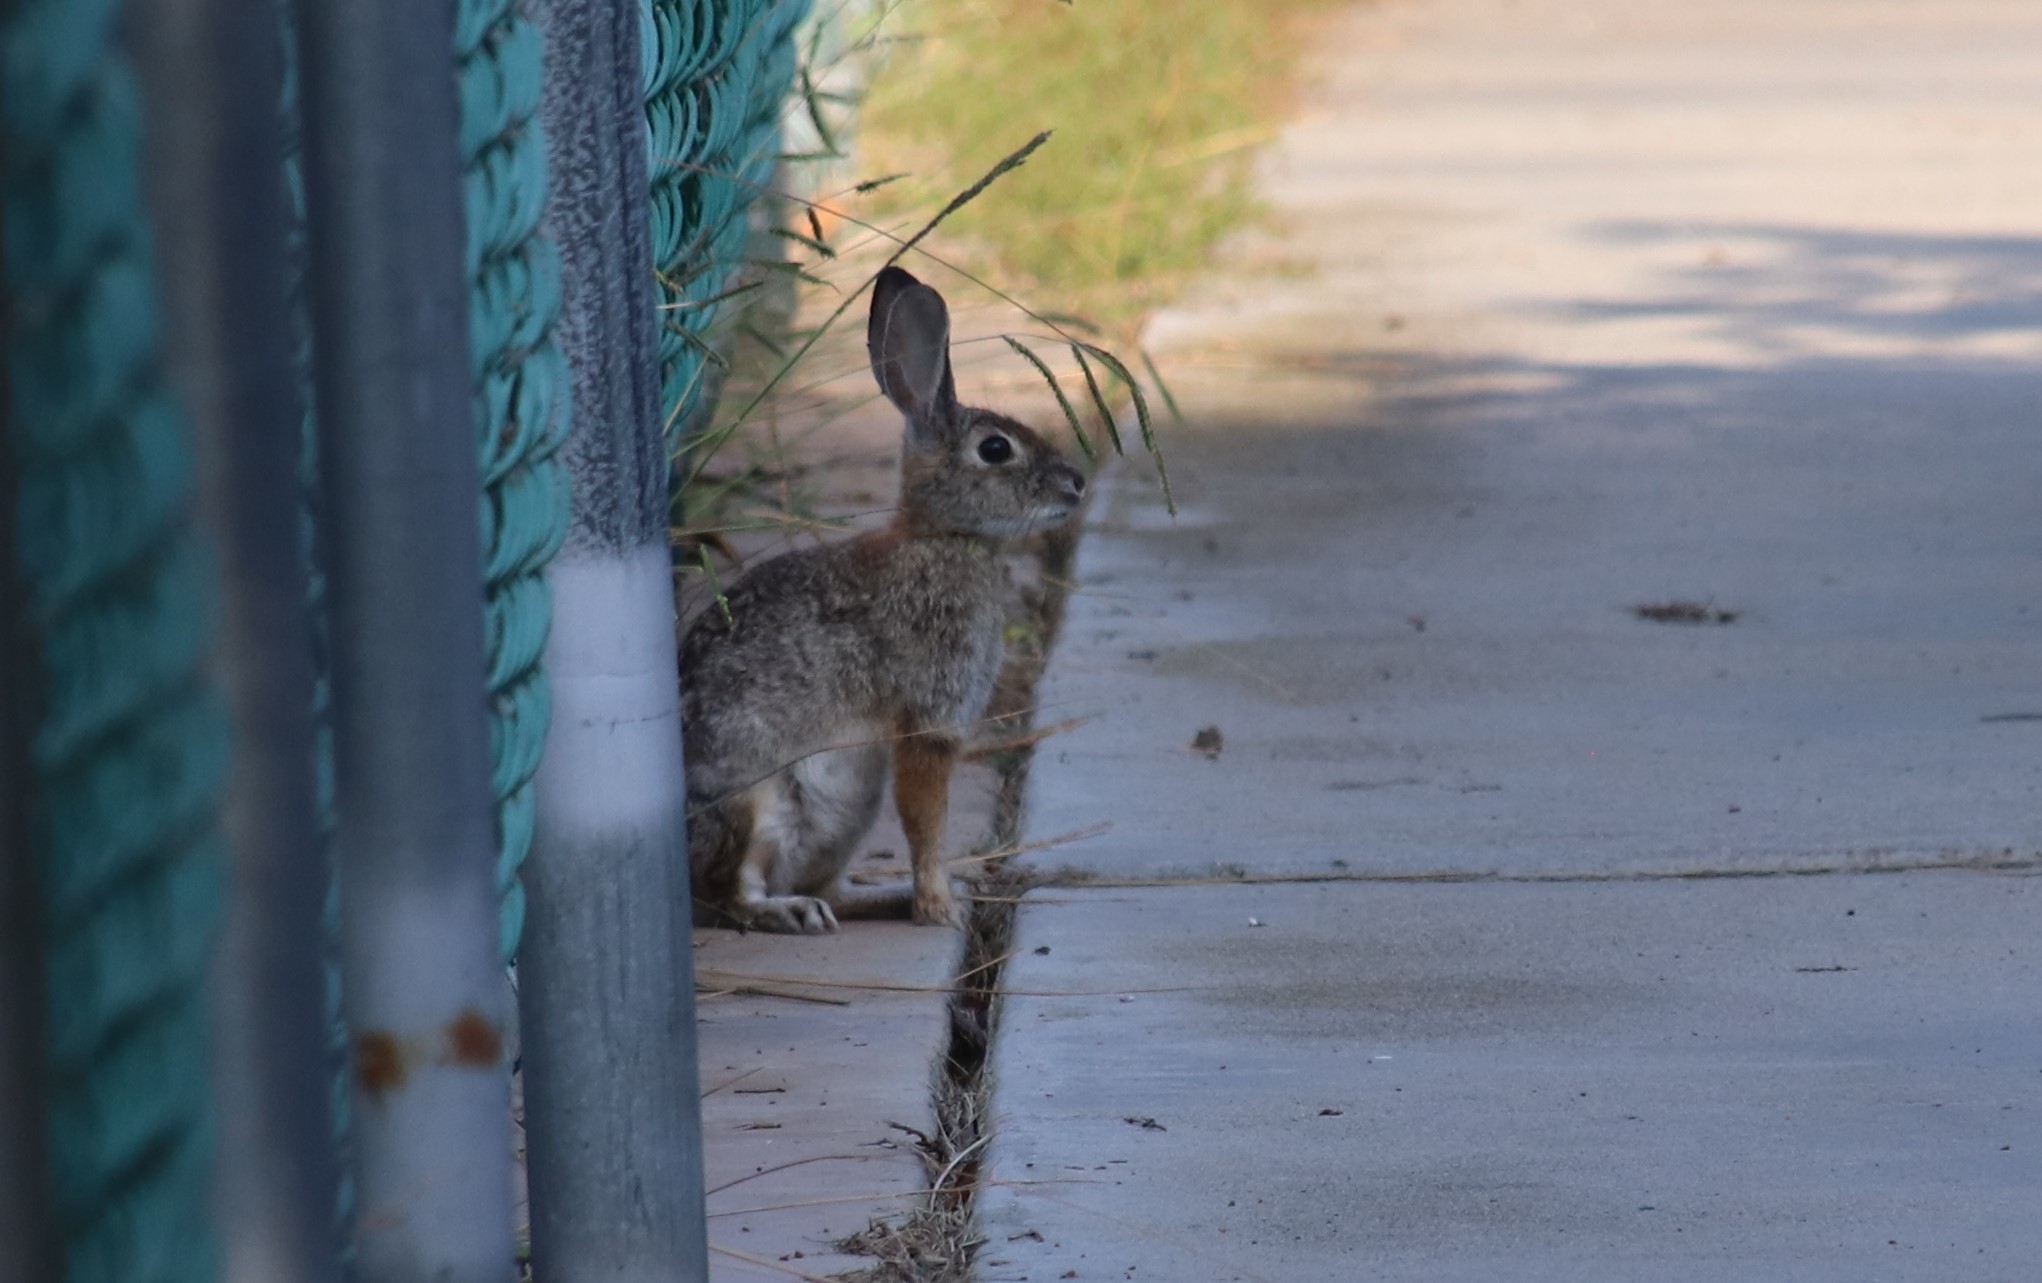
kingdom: Animalia
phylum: Chordata
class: Mammalia
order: Lagomorpha
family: Leporidae
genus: Sylvilagus
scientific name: Sylvilagus audubonii
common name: Desert cottontail
